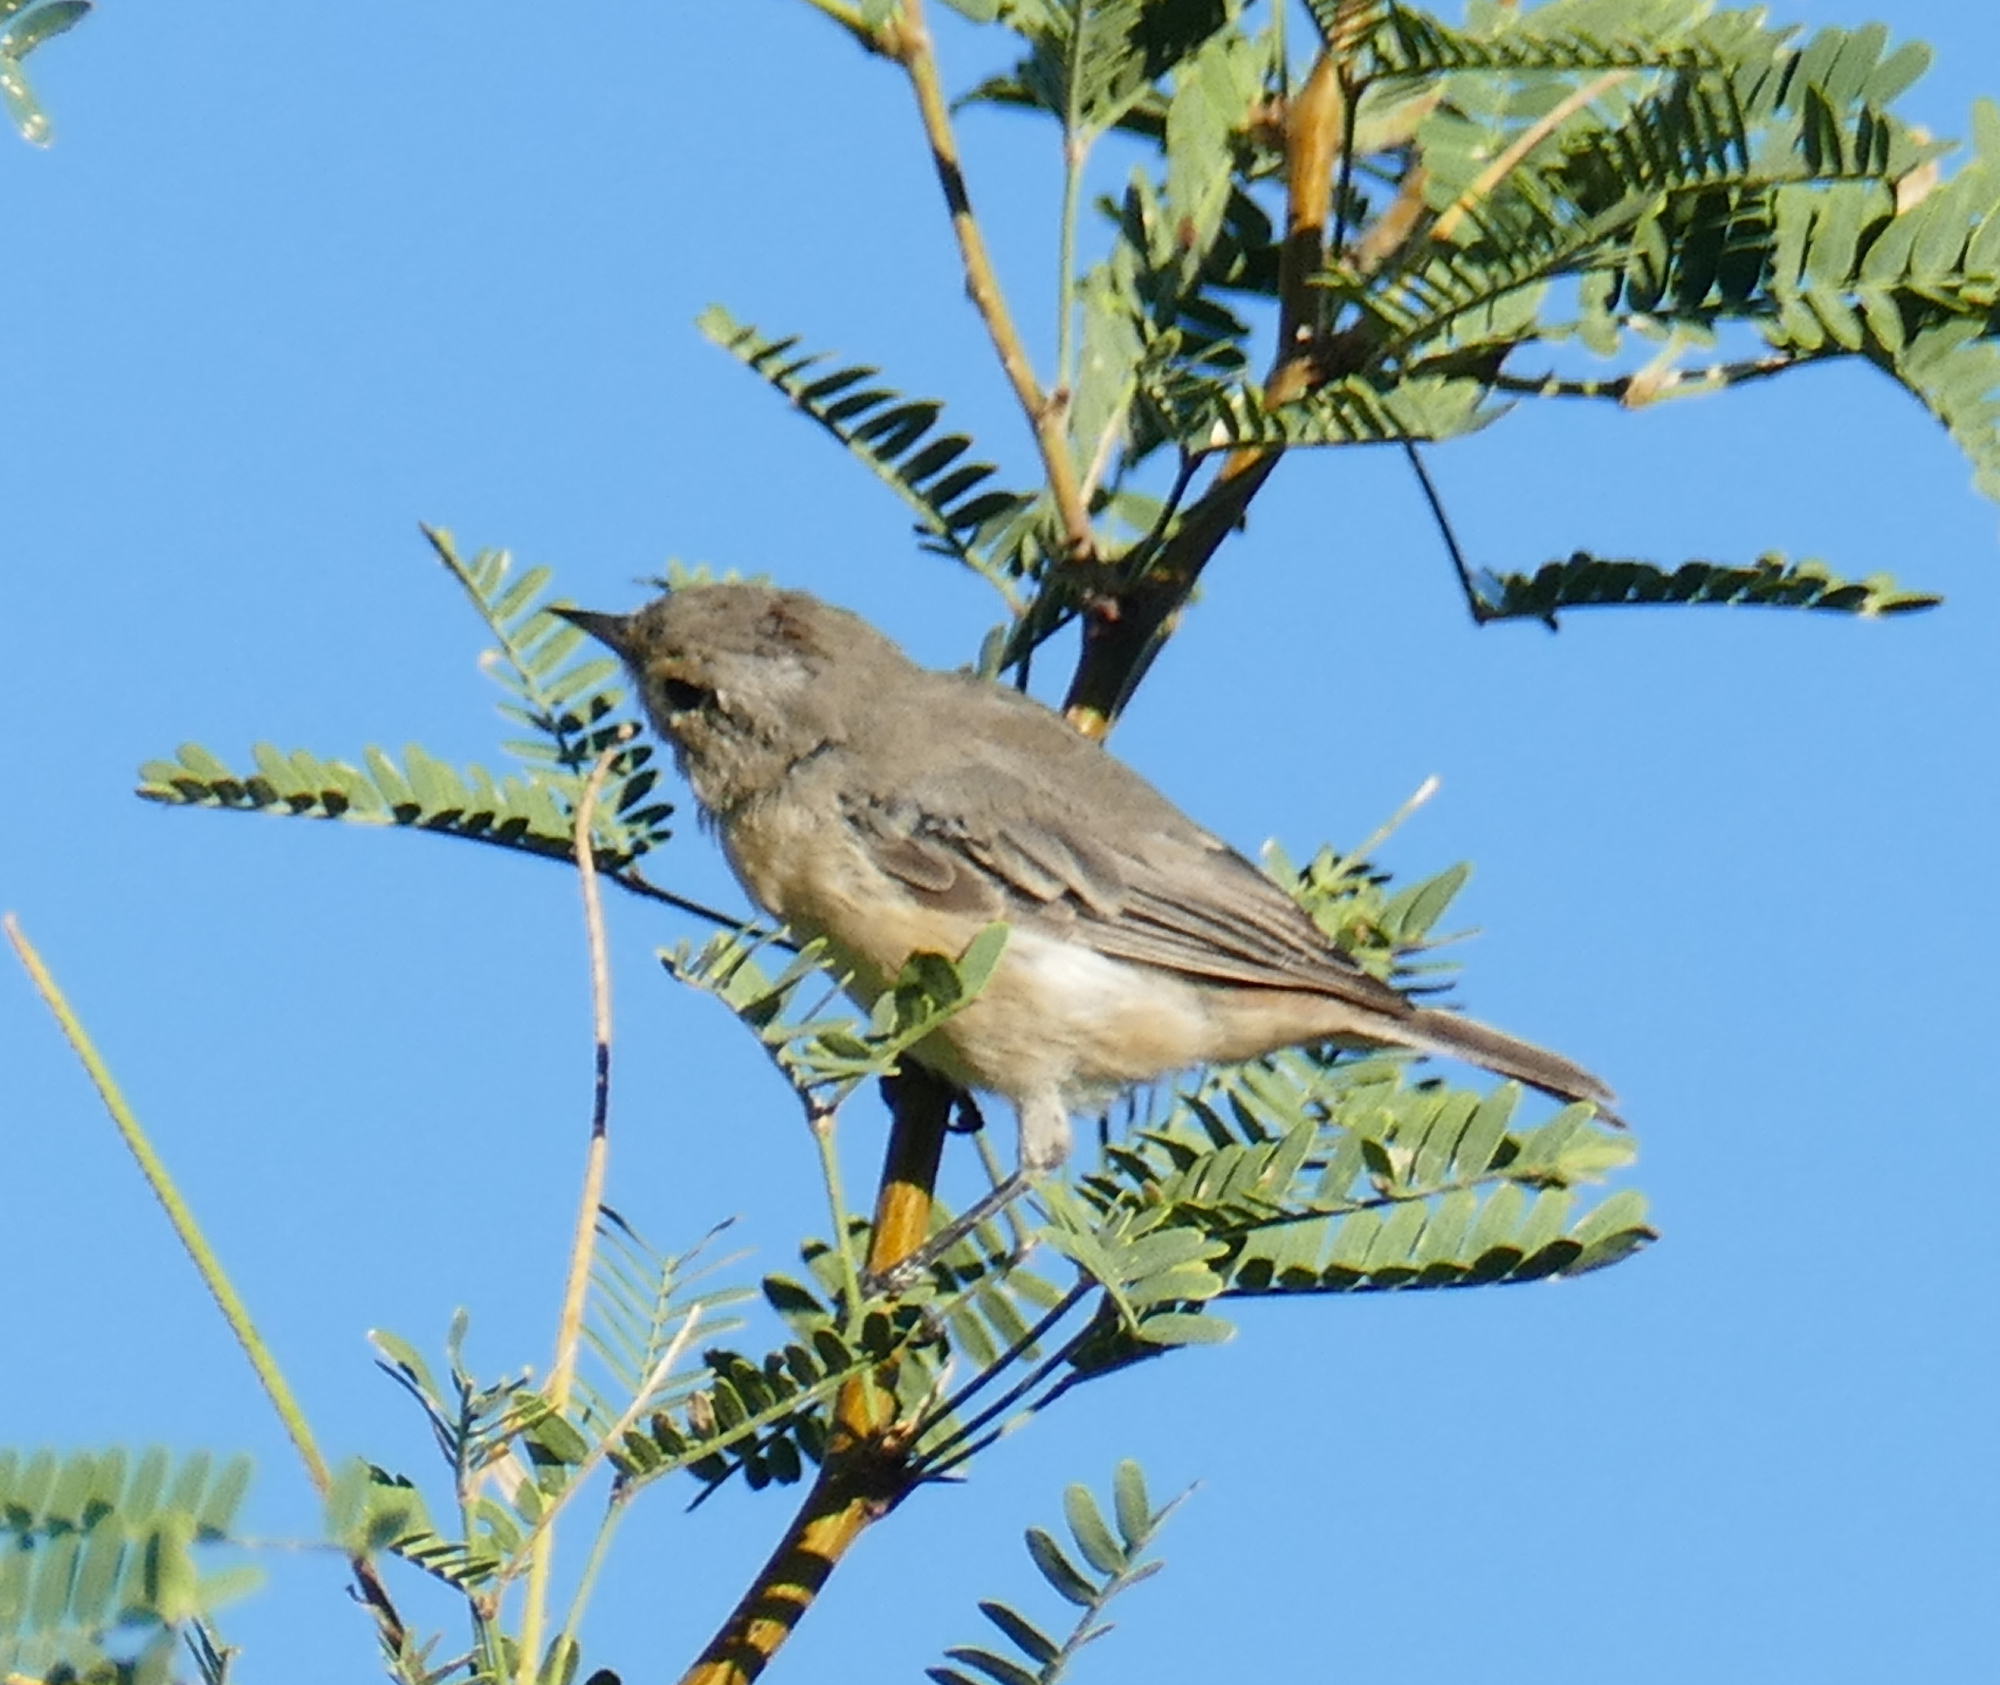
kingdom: Animalia
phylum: Chordata
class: Aves
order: Passeriformes
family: Parulidae
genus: Leiothlypis
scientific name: Leiothlypis luciae
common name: Lucy's warbler
